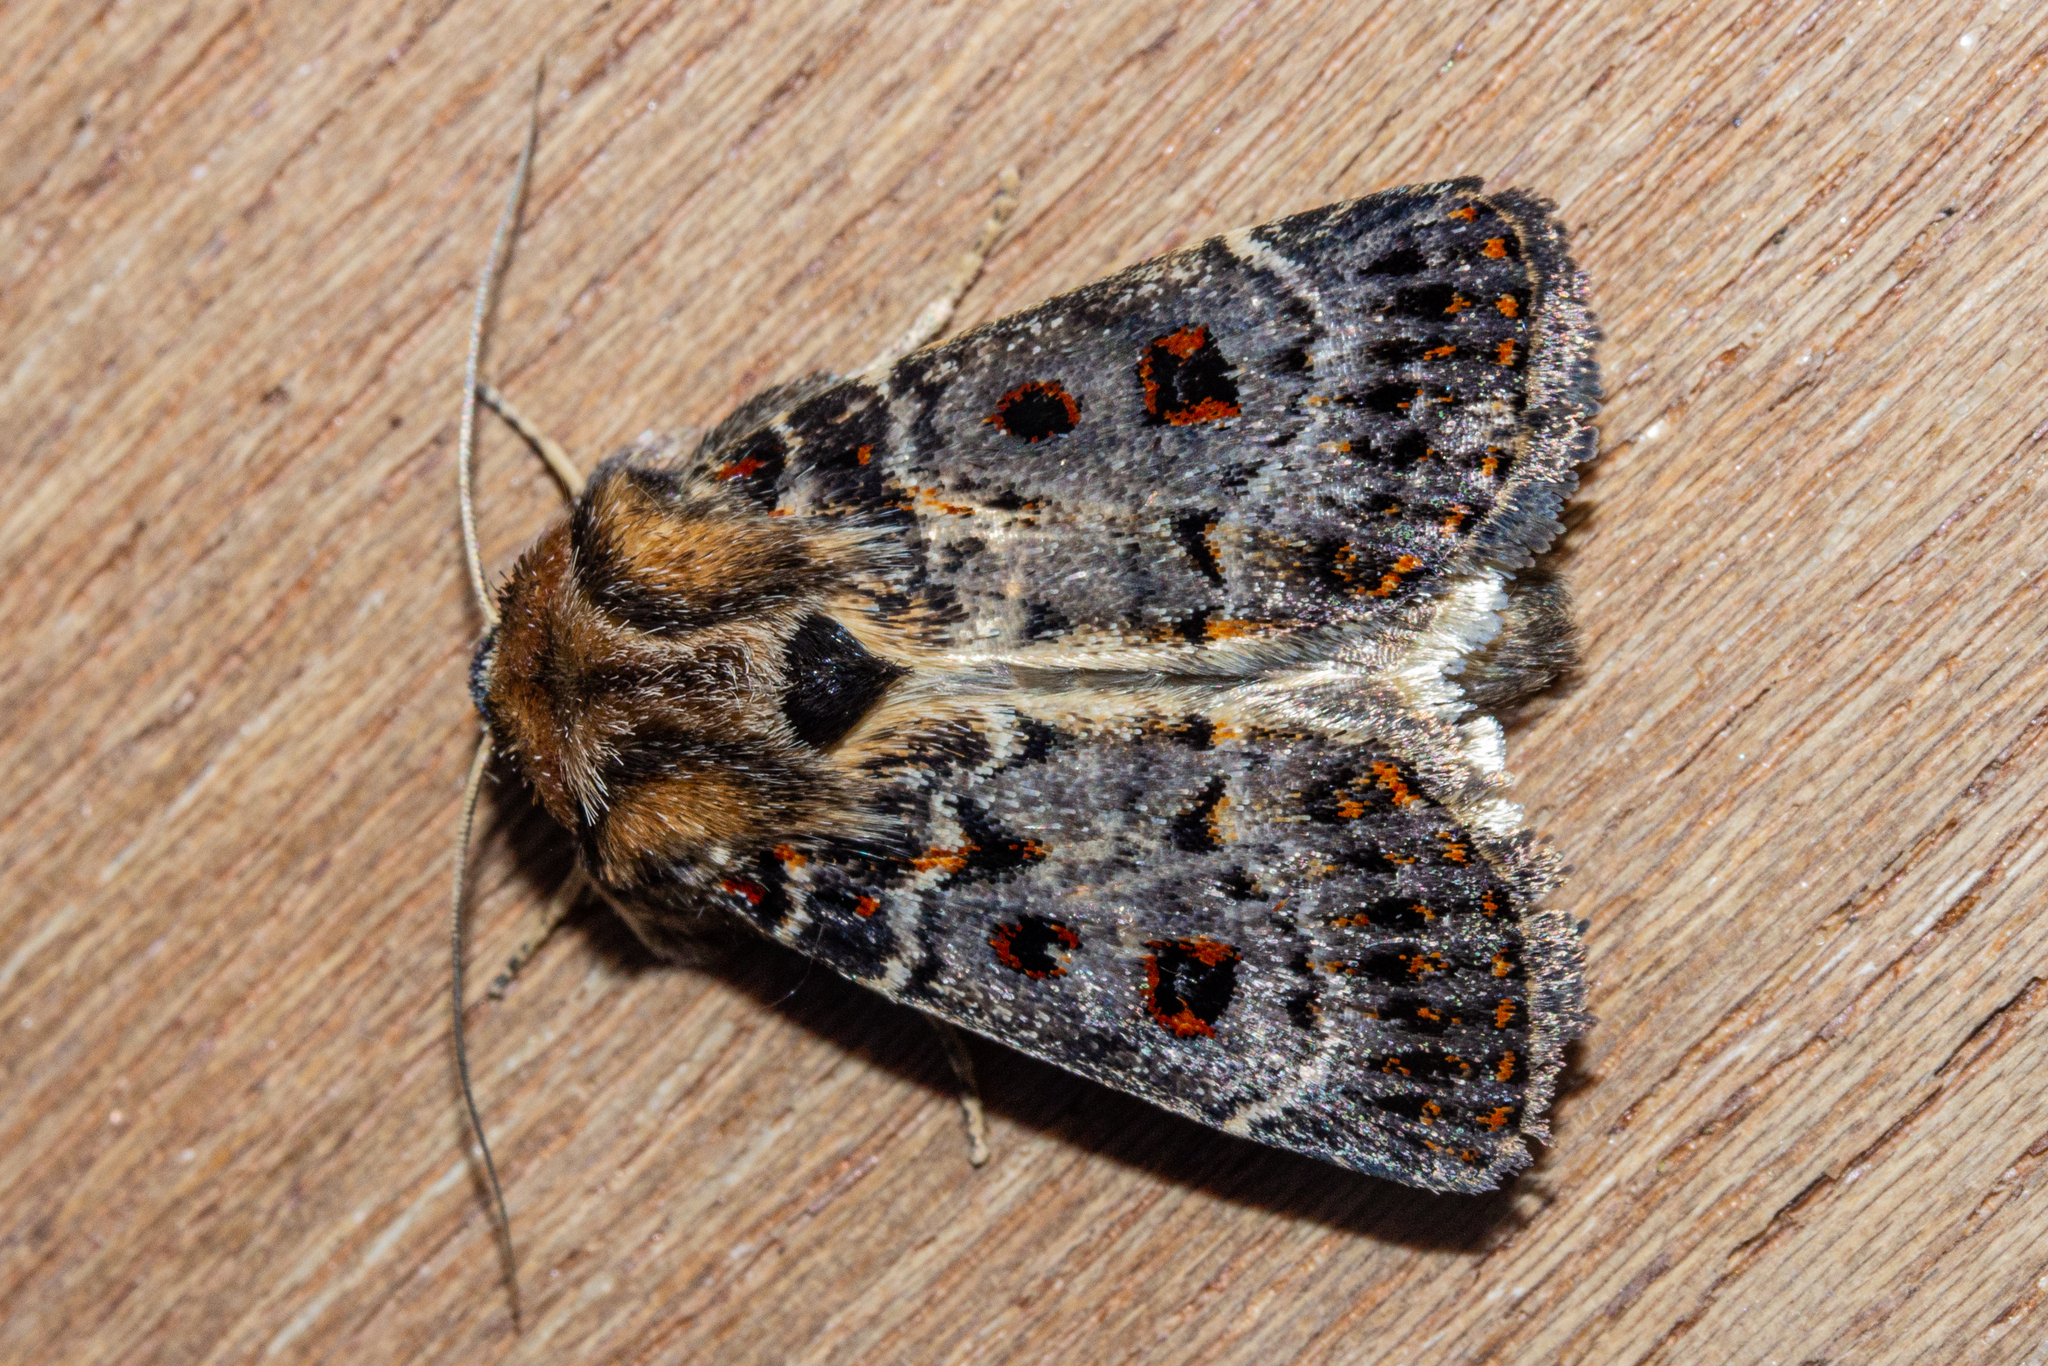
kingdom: Animalia
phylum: Arthropoda
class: Insecta
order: Lepidoptera
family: Noctuidae
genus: Proteuxoa
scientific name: Proteuxoa sanguinipuncta
